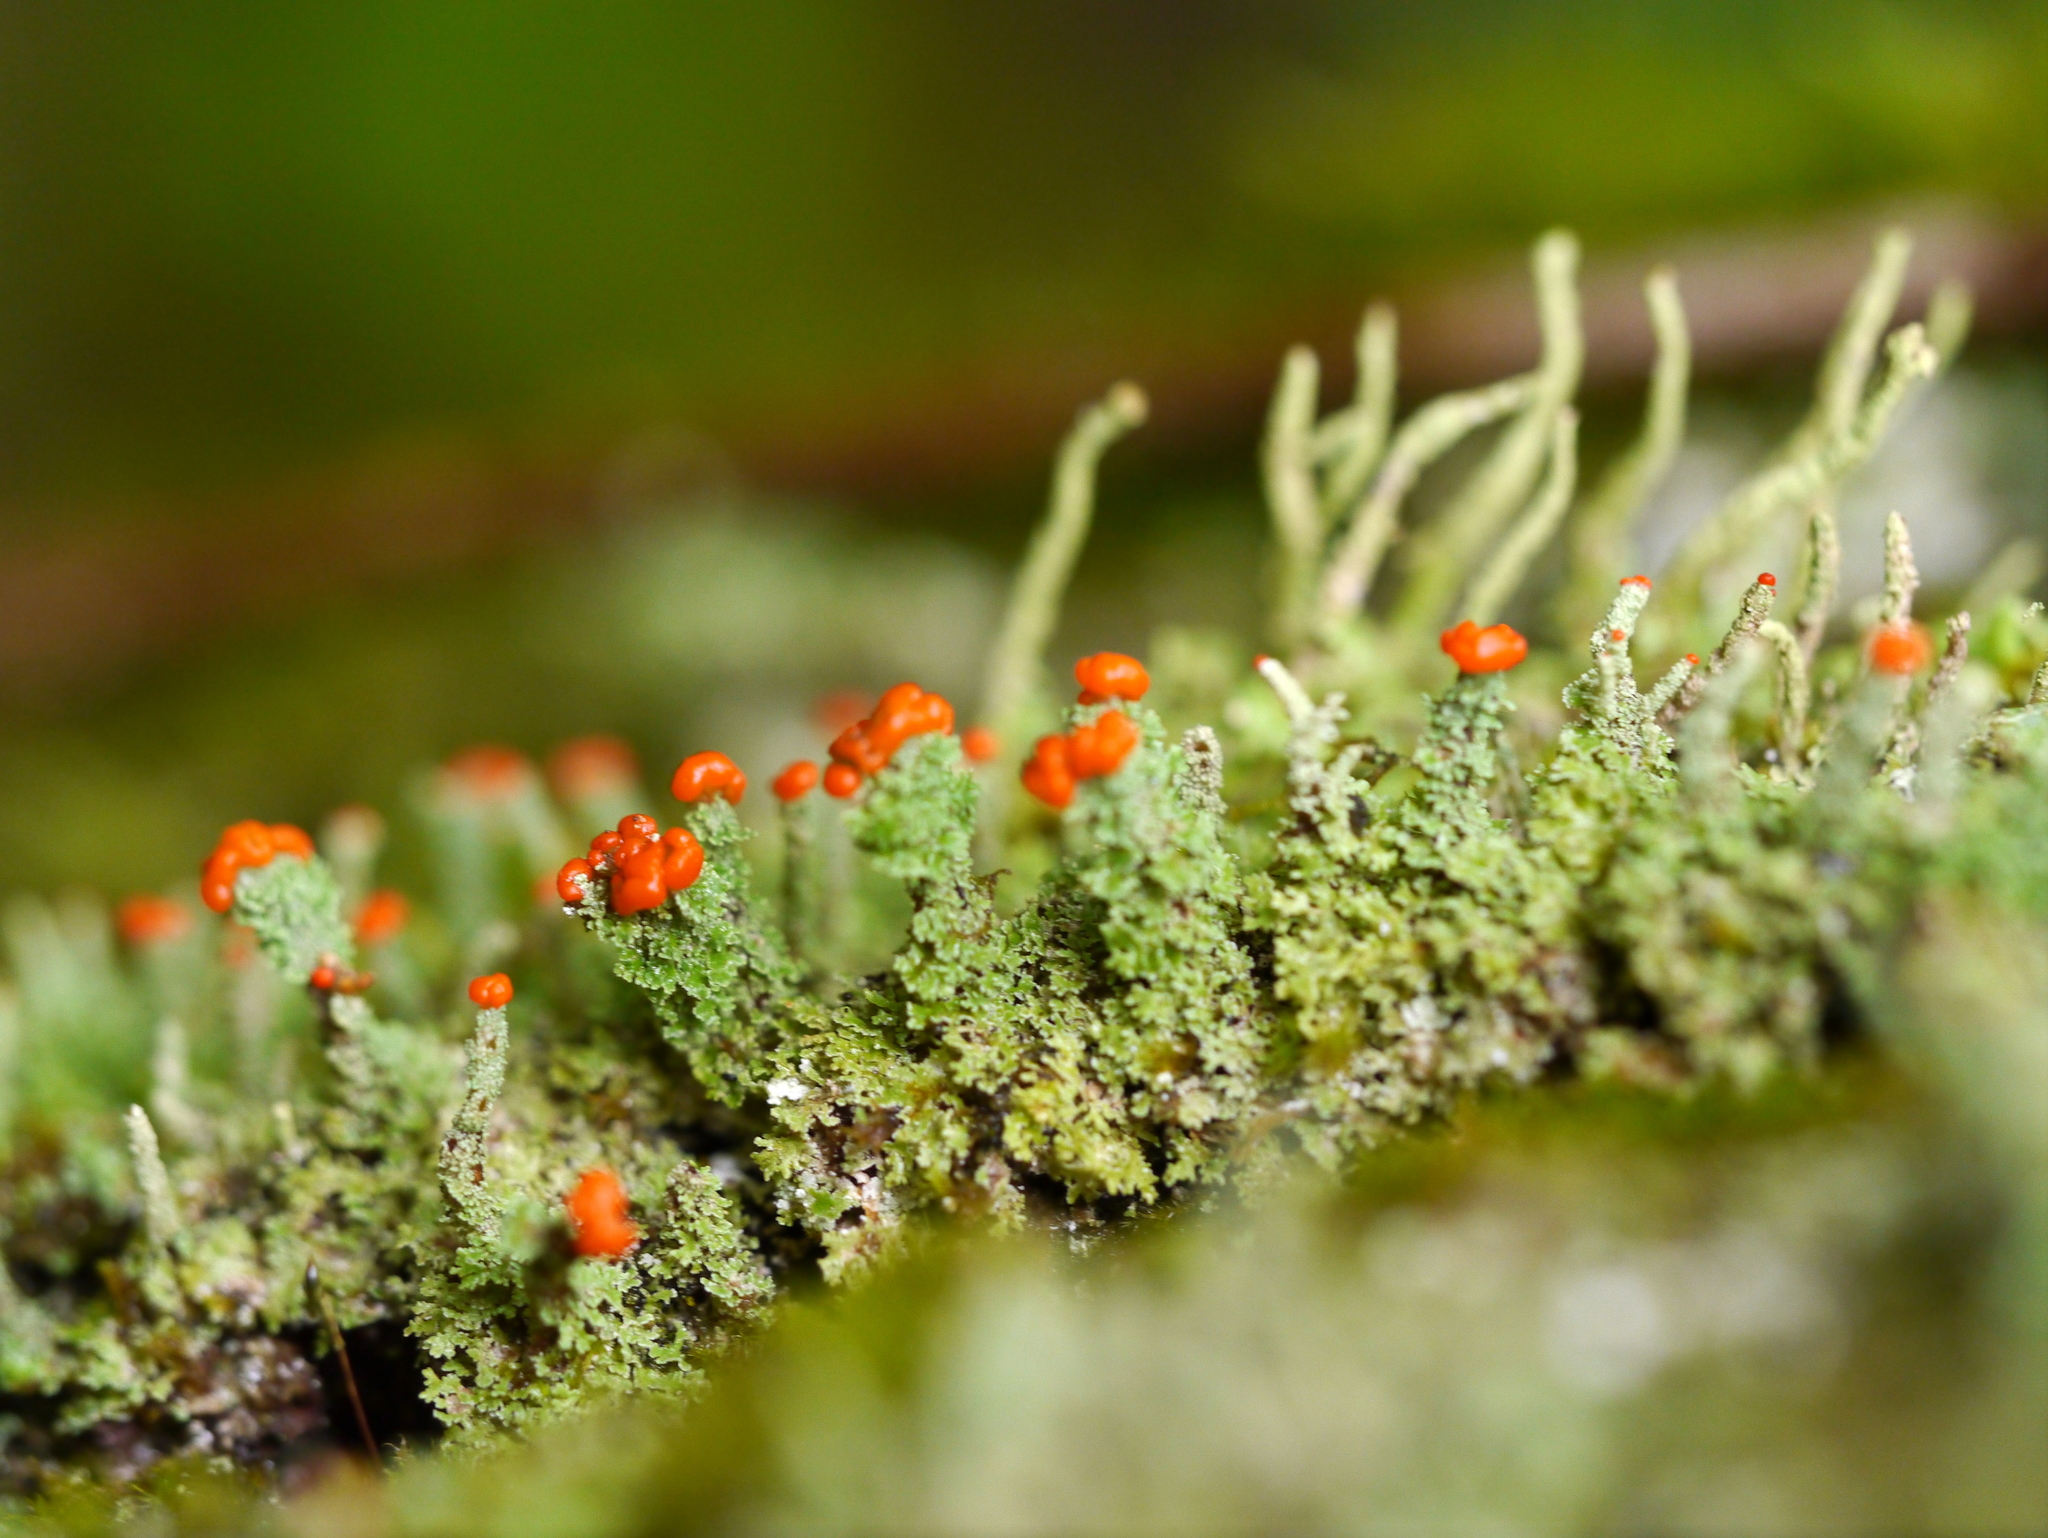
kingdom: Fungi
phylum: Ascomycota
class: Lecanoromycetes
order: Lecanorales
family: Cladoniaceae
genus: Cladonia
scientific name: Cladonia cristatella
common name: British soldier lichen
